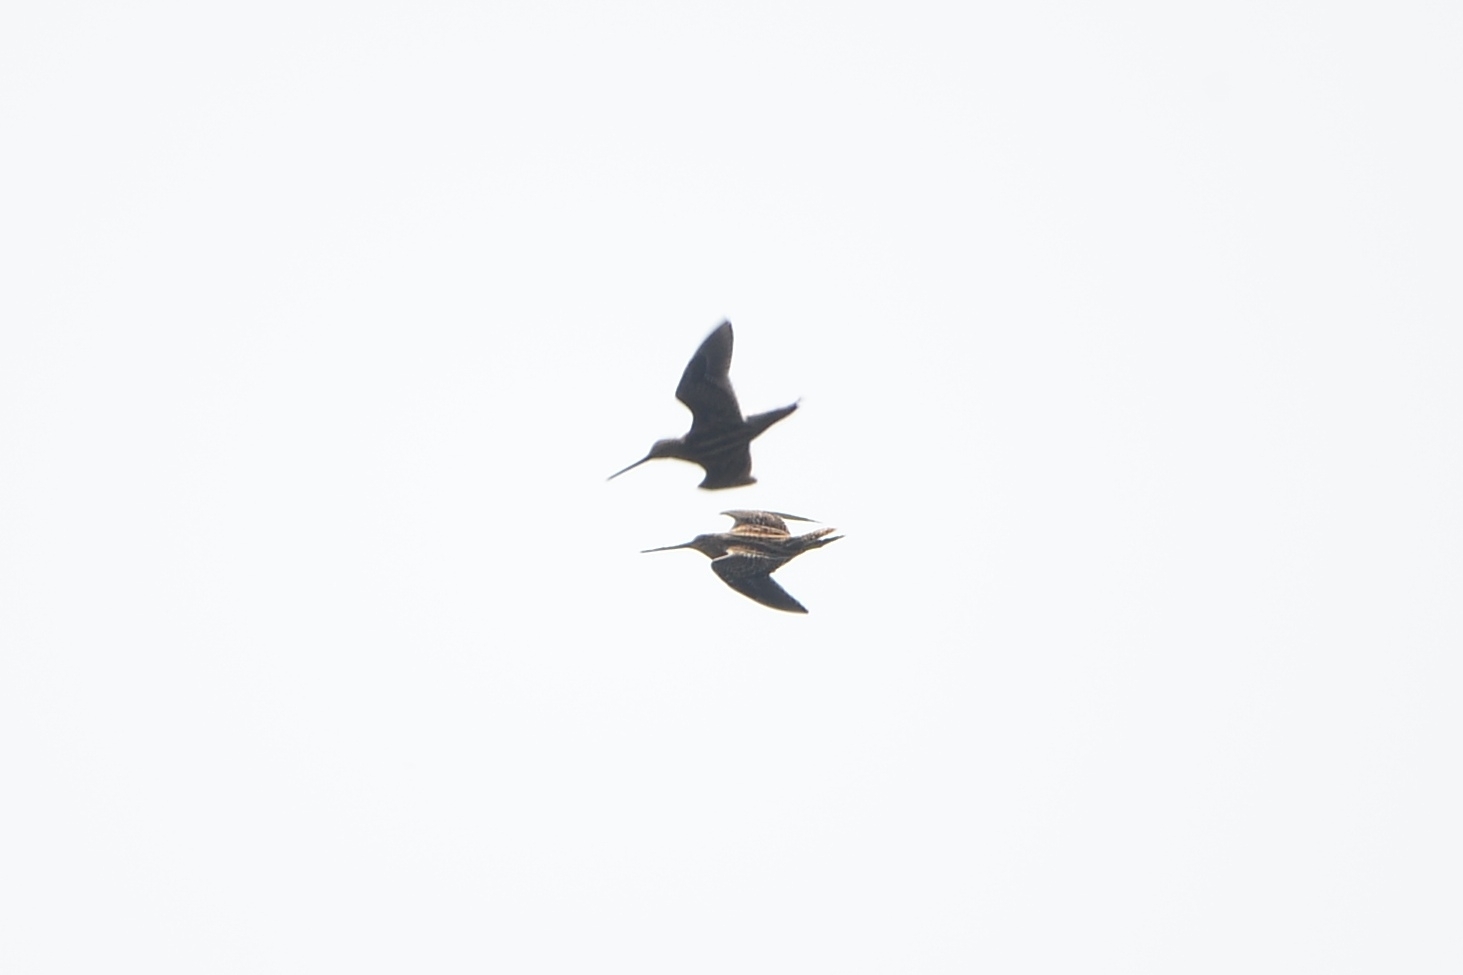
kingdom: Animalia
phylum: Chordata
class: Aves
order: Charadriiformes
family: Scolopacidae
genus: Gallinago
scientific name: Gallinago gallinago
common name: Common snipe
